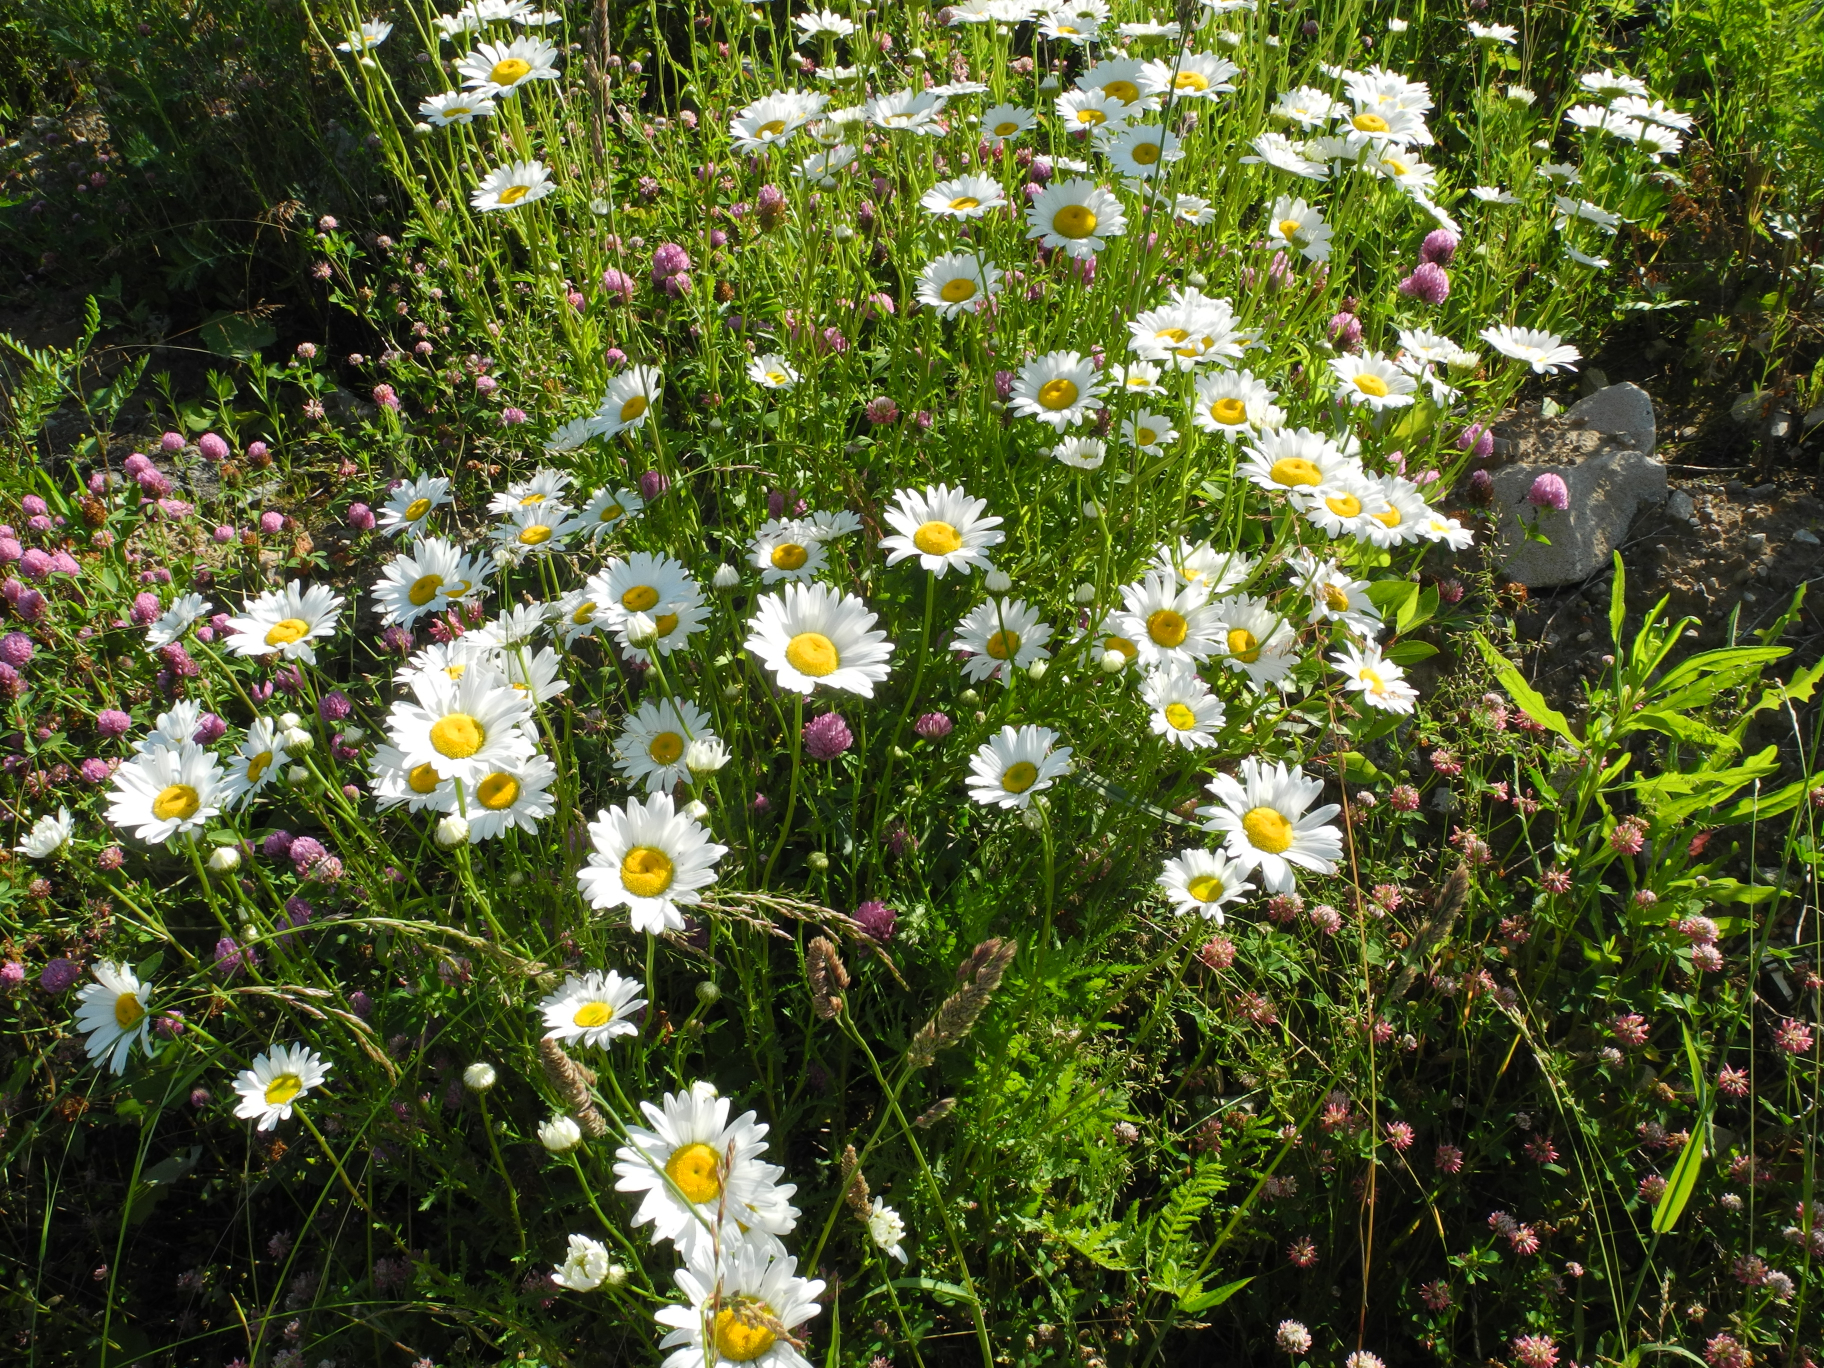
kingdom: Plantae
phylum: Tracheophyta
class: Magnoliopsida
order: Asterales
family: Asteraceae
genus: Leucanthemum
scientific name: Leucanthemum vulgare
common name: Oxeye daisy
